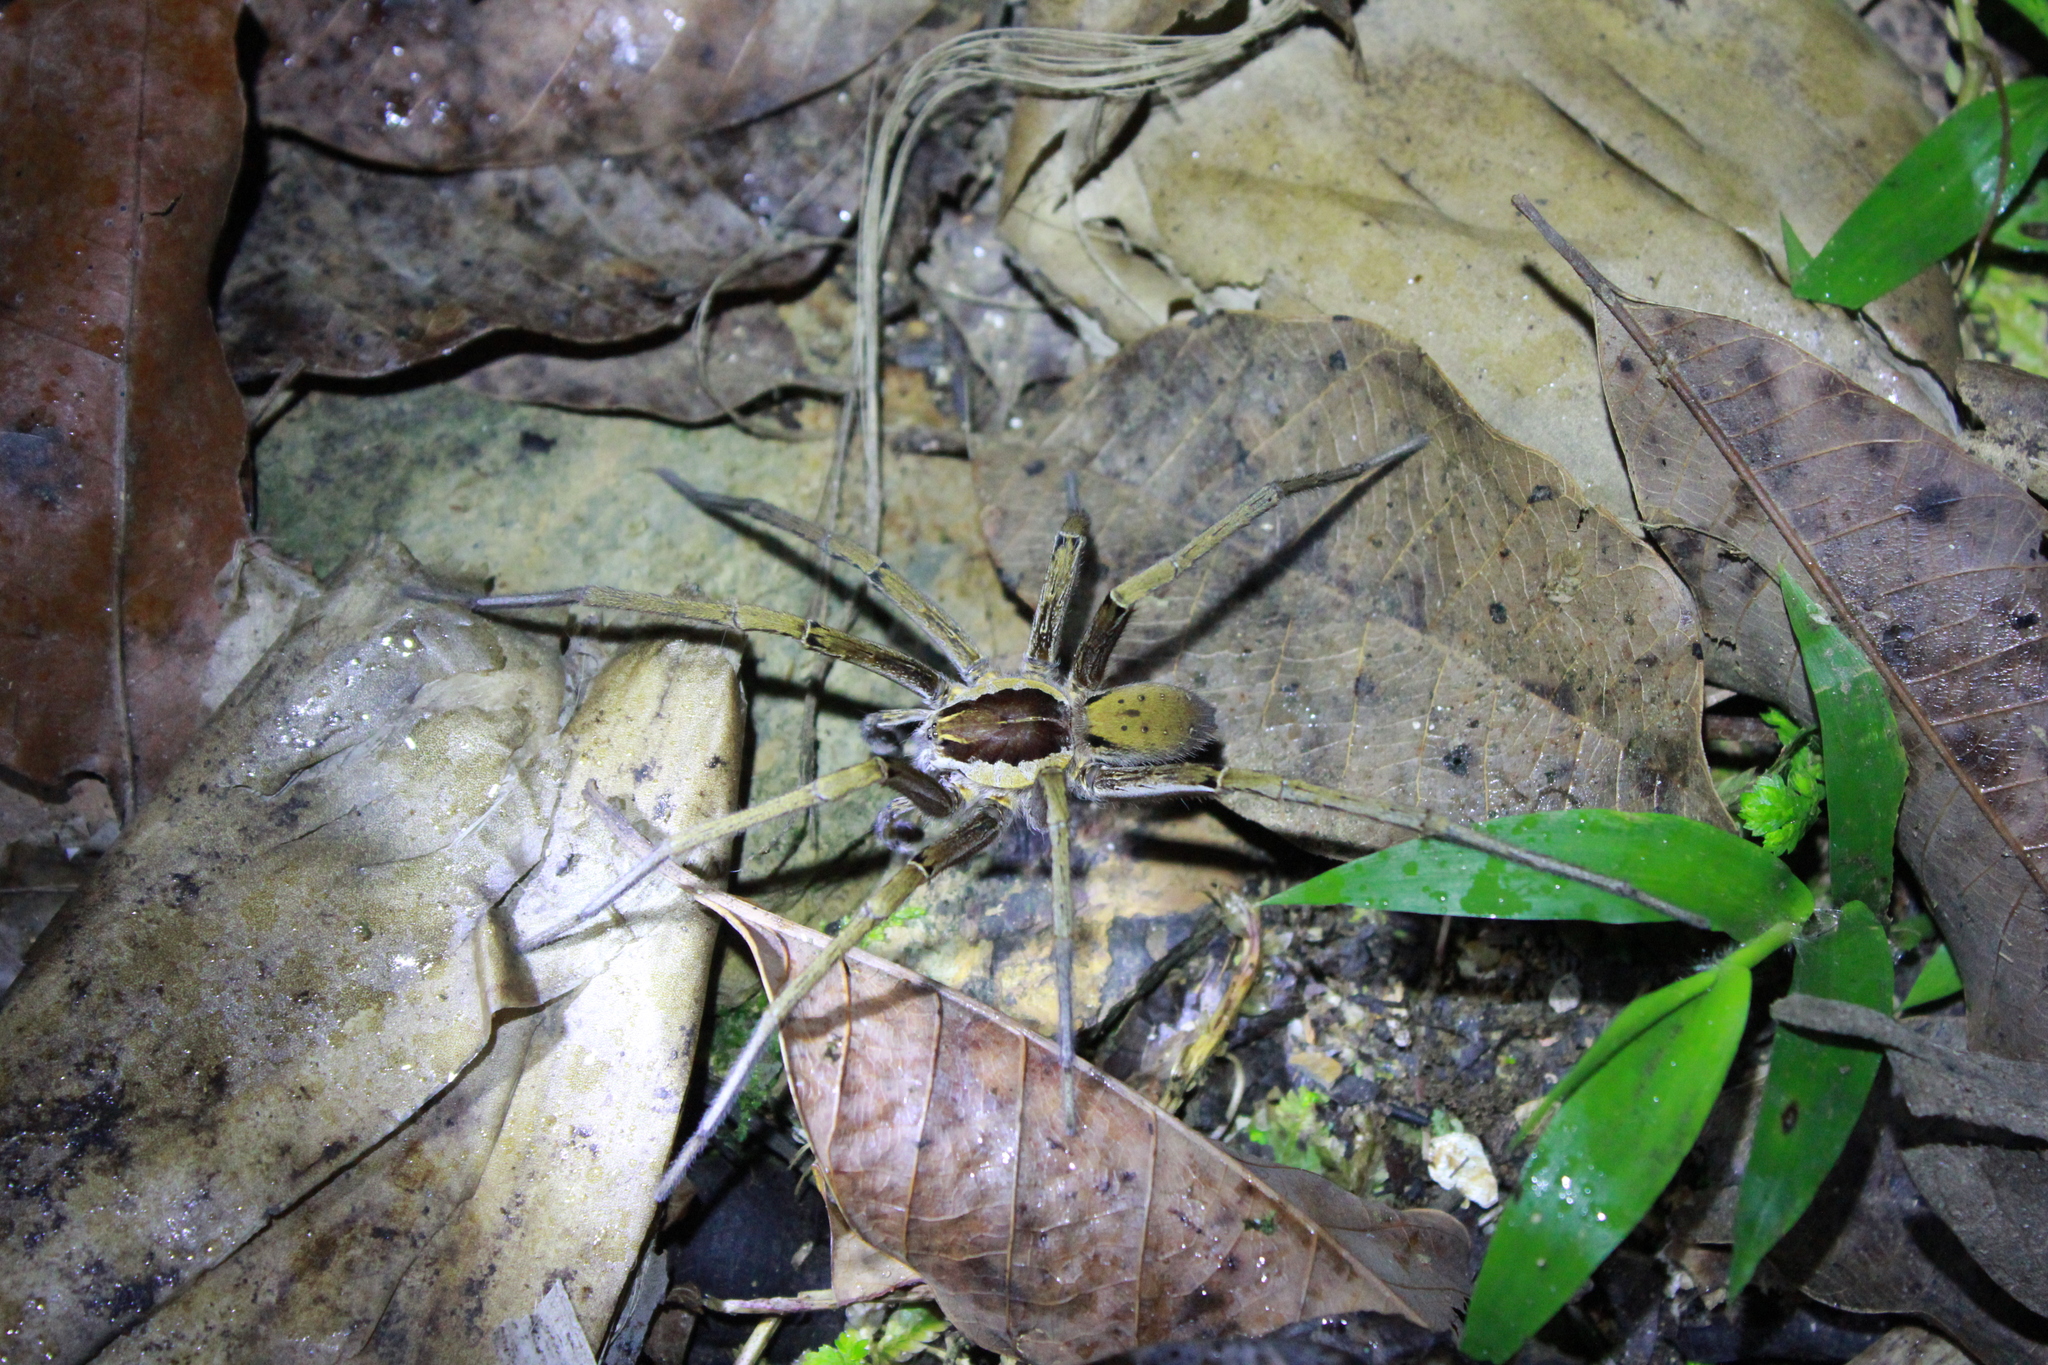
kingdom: Animalia
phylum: Arthropoda
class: Arachnida
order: Araneae
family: Ctenidae
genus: Ancylometes
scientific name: Ancylometes
